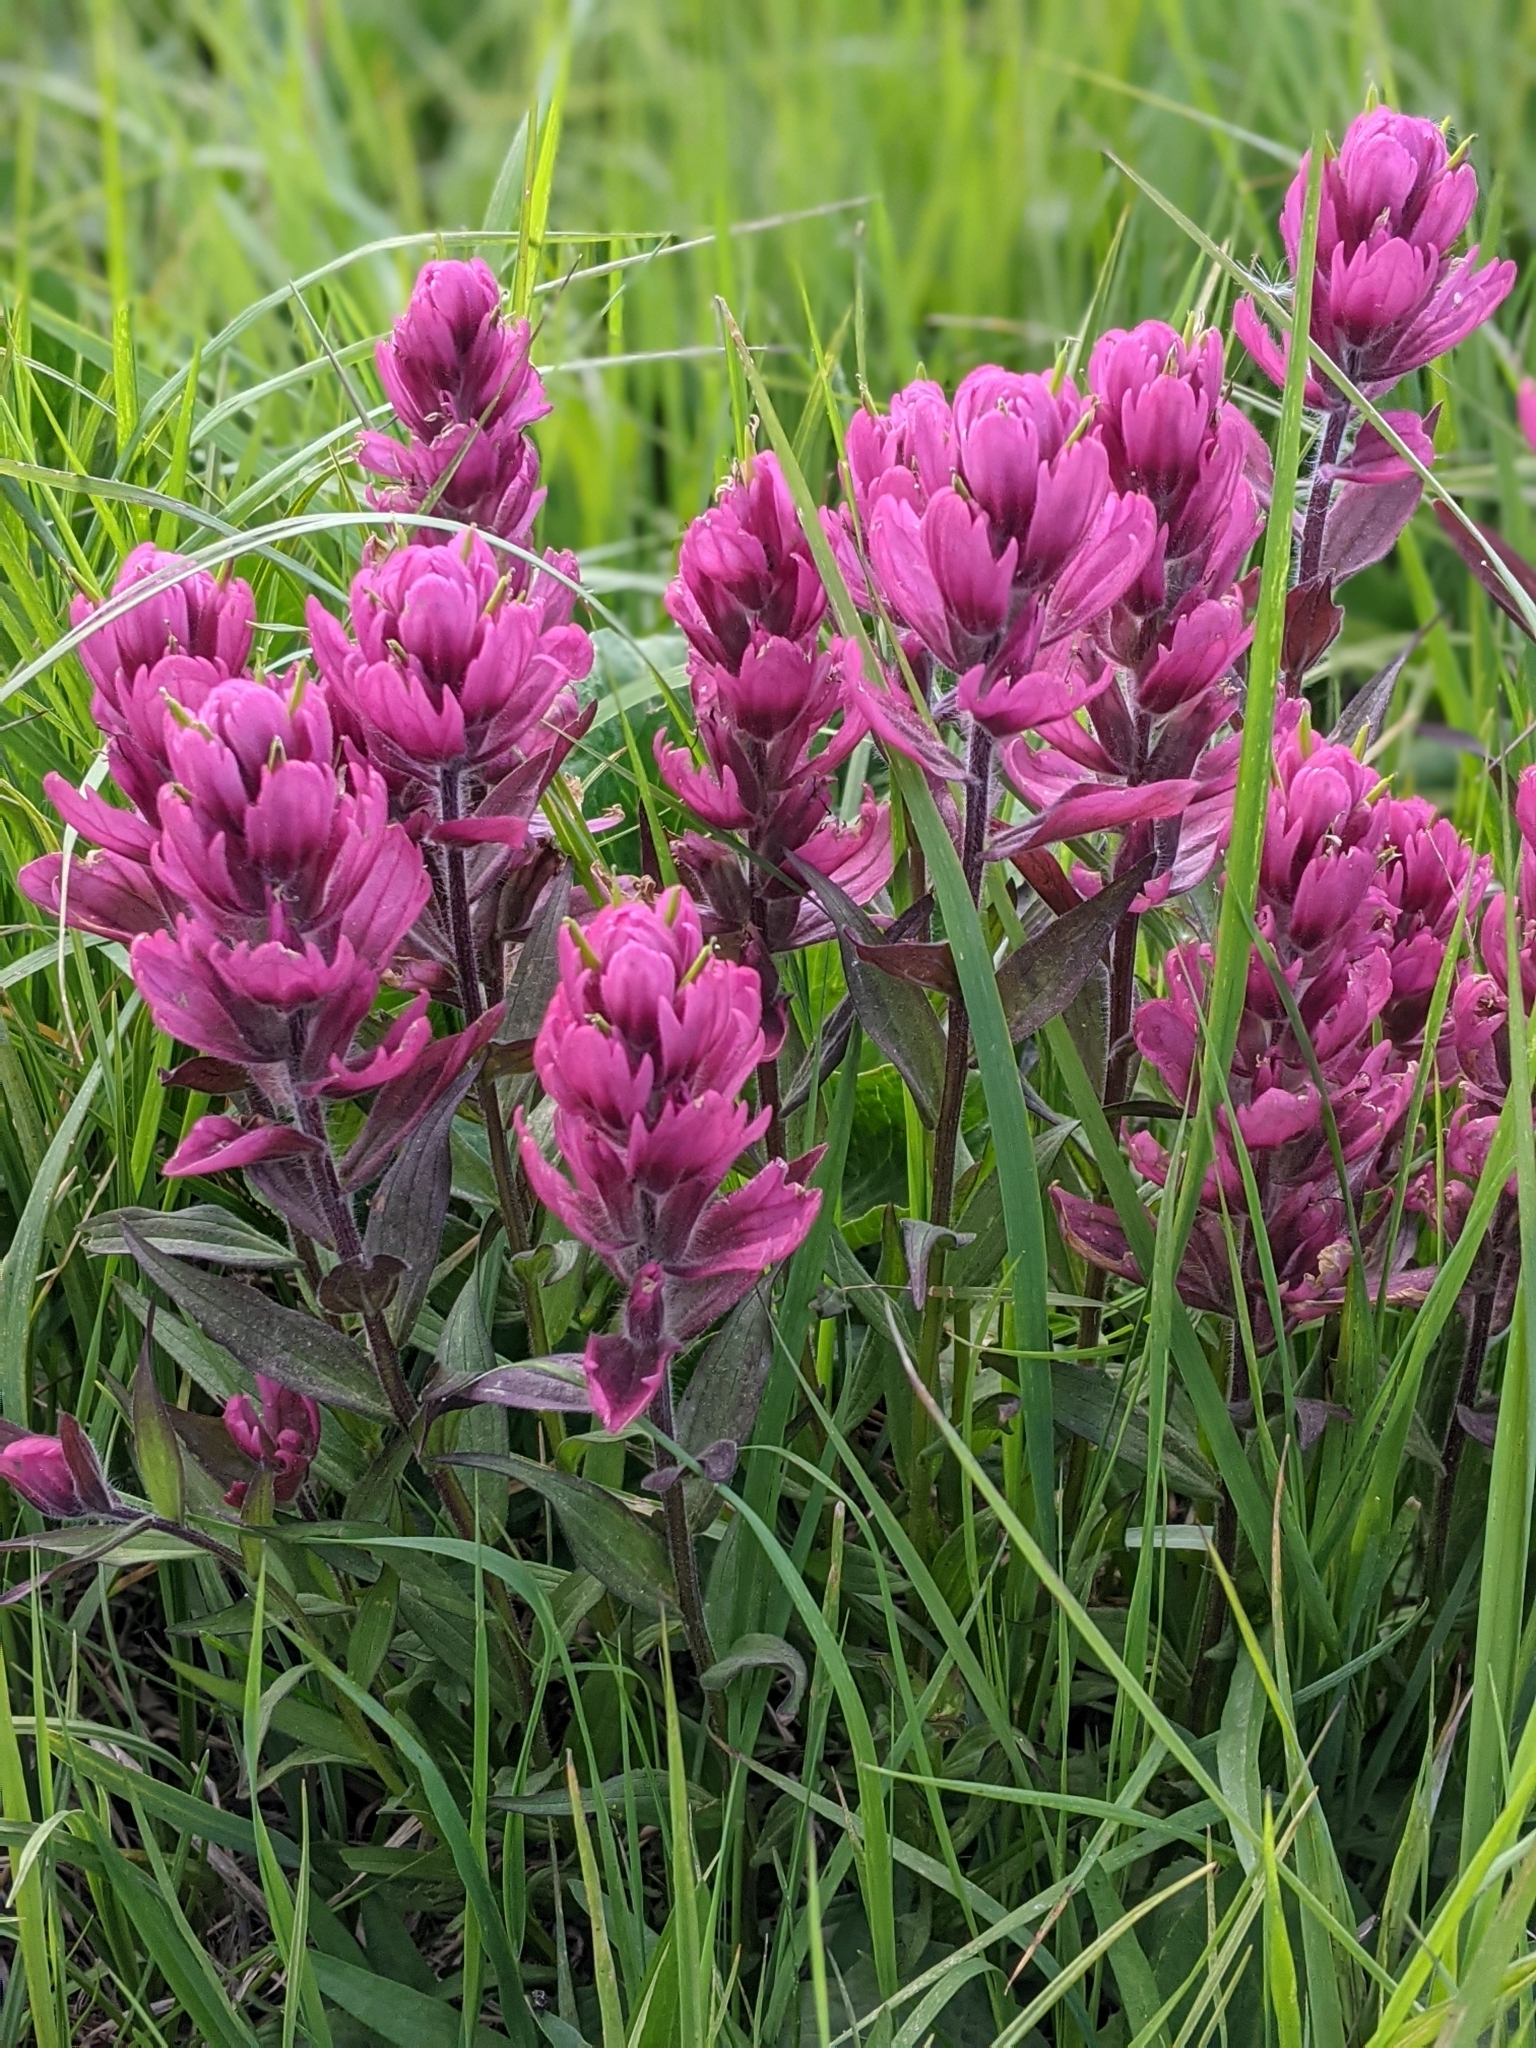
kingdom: Plantae
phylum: Tracheophyta
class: Magnoliopsida
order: Lamiales
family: Orobanchaceae
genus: Castilleja
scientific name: Castilleja rhexifolia
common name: Rocky mountain paintbrush
